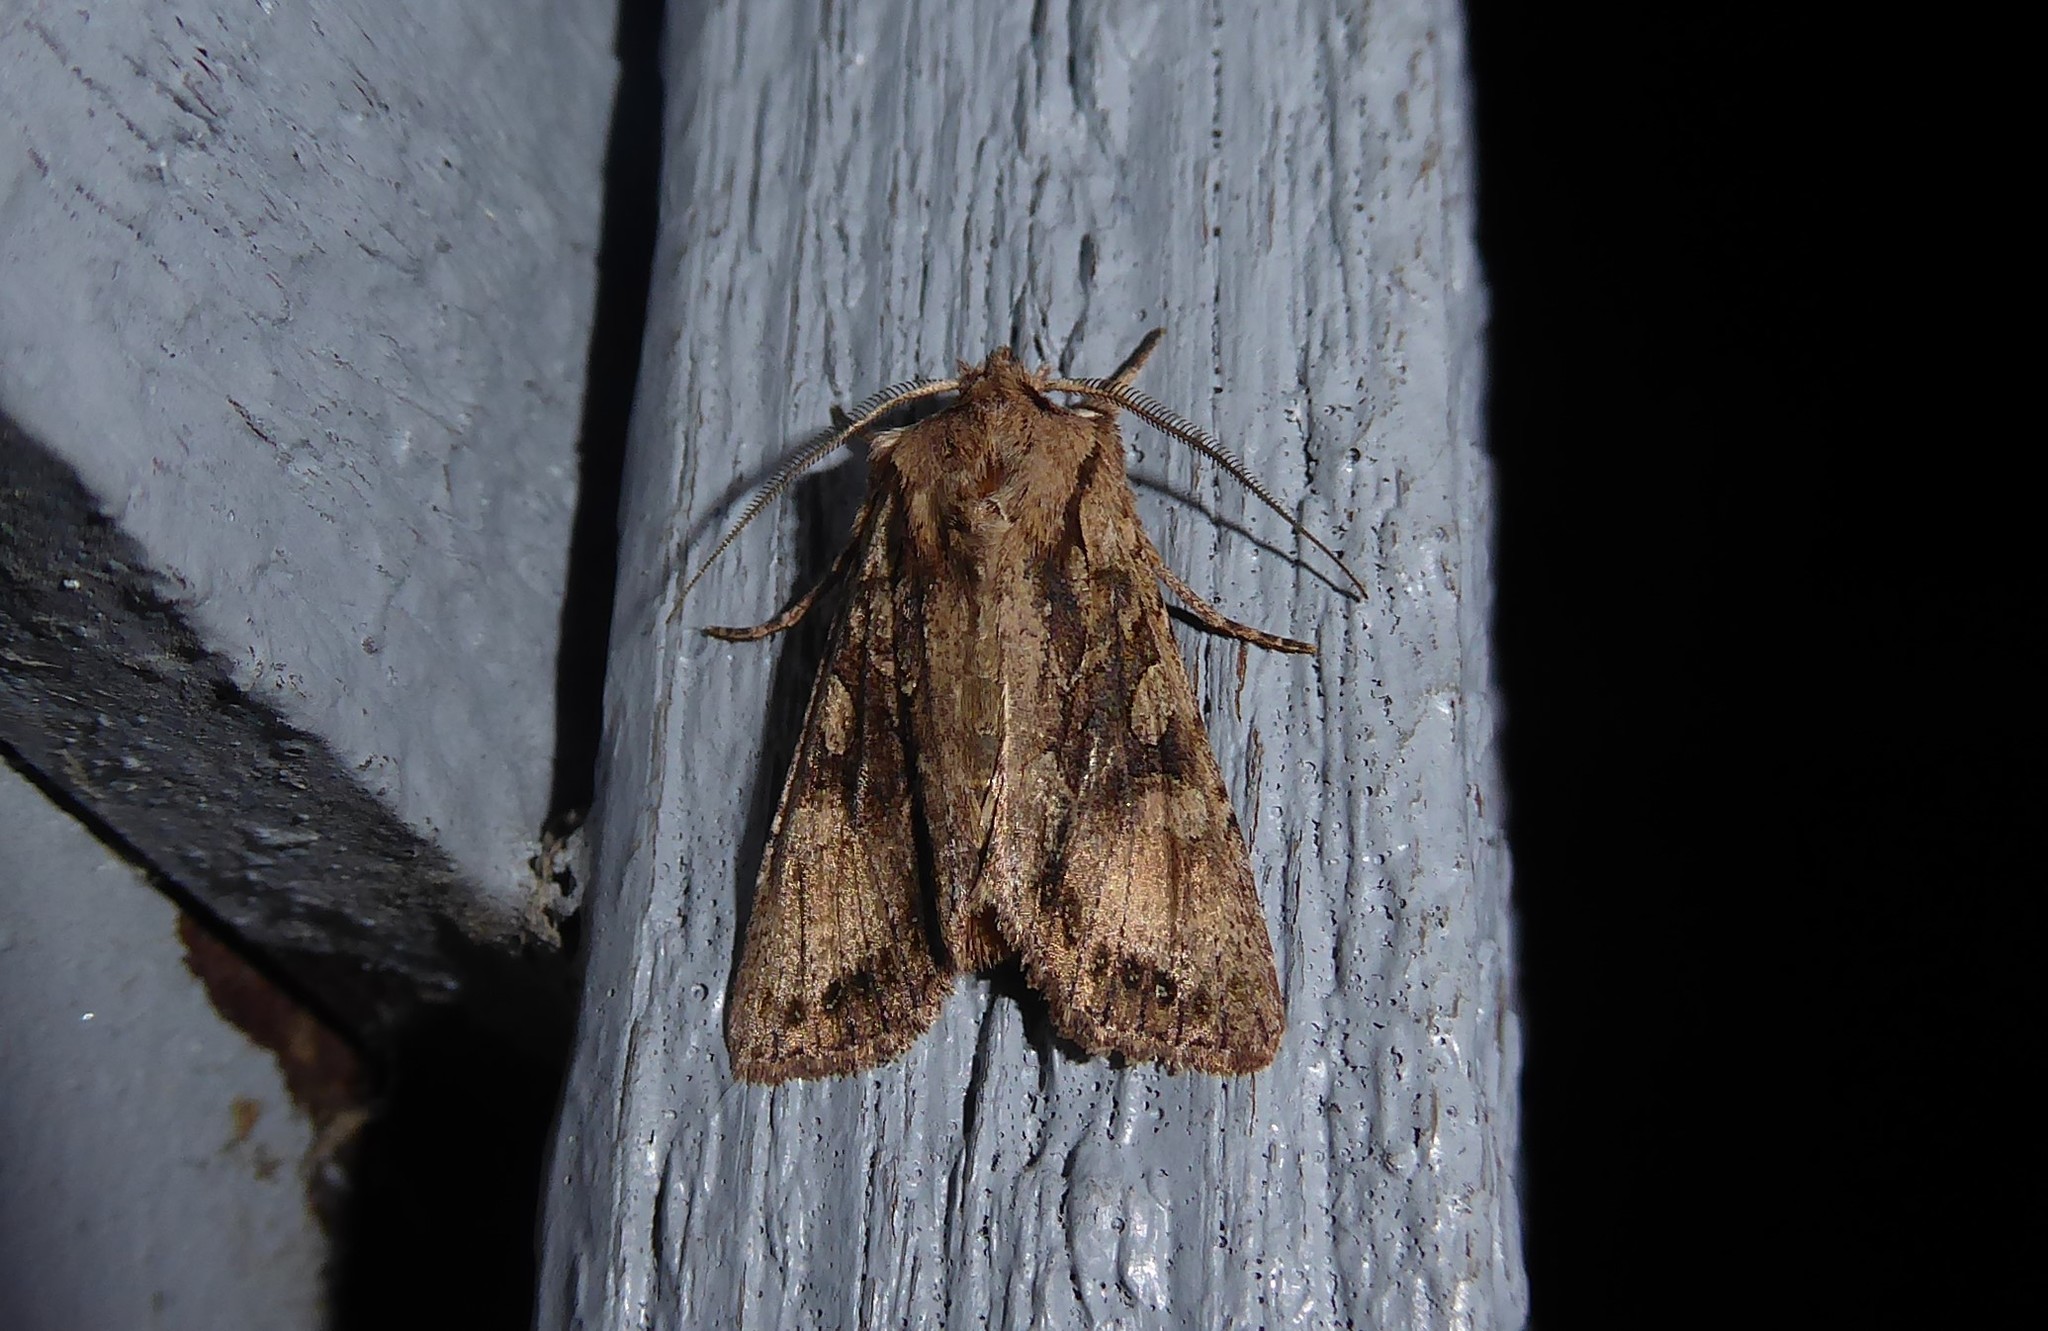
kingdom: Animalia
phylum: Arthropoda
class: Insecta
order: Lepidoptera
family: Noctuidae
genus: Ichneutica
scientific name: Ichneutica mutans
